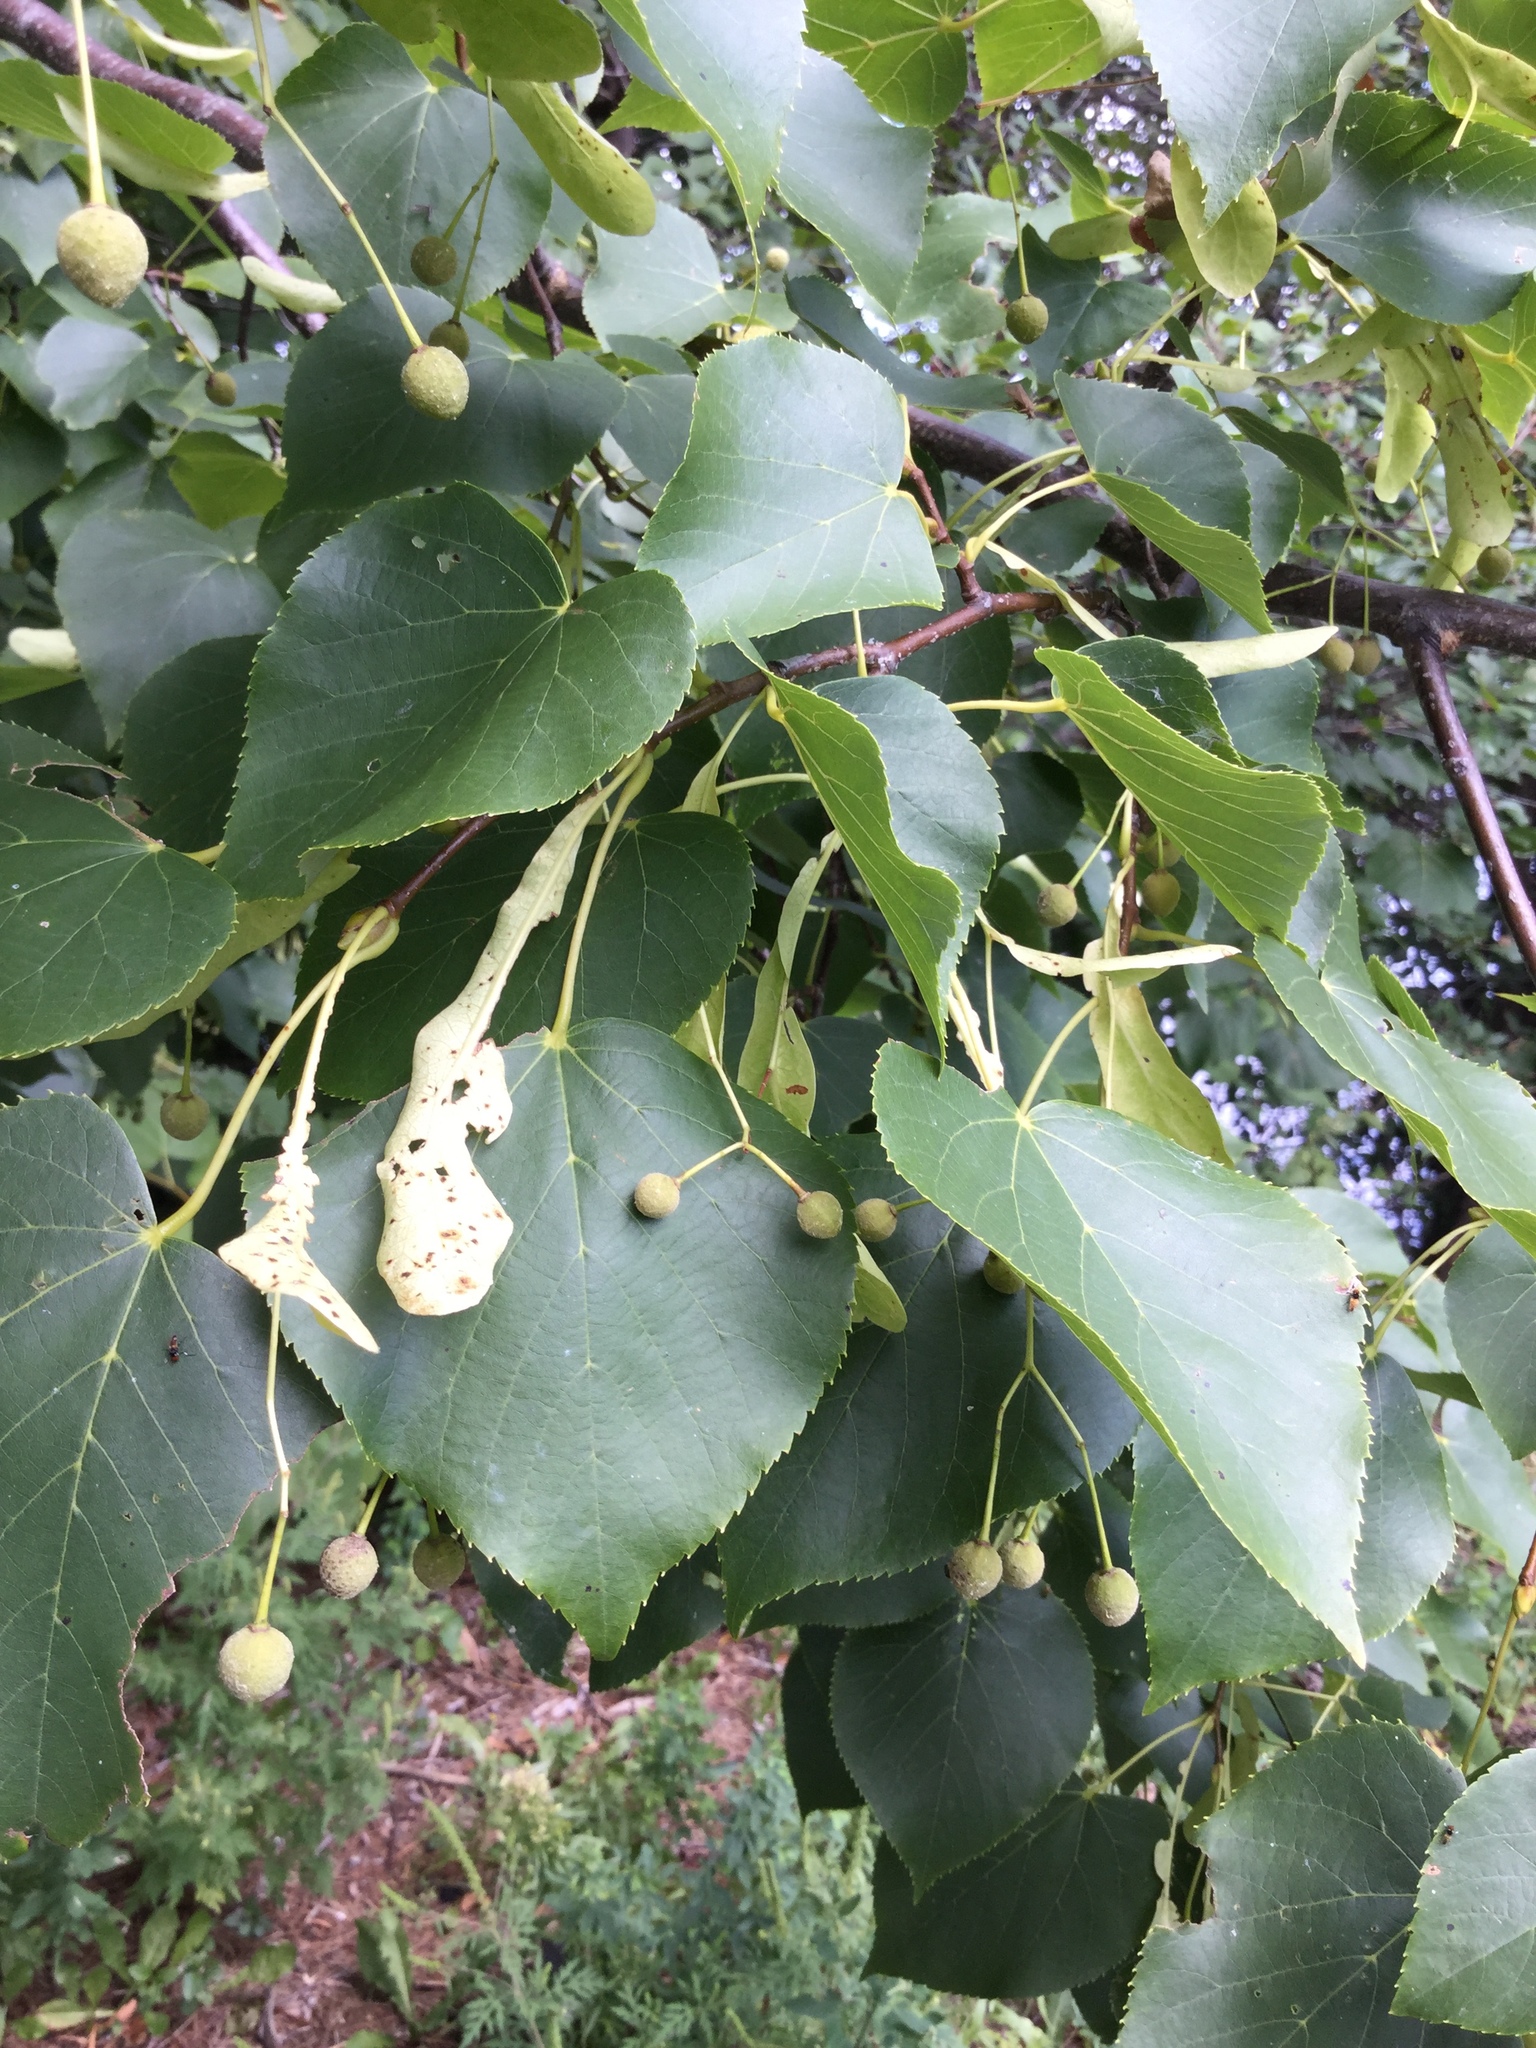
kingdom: Plantae
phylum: Tracheophyta
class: Magnoliopsida
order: Malvales
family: Malvaceae
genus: Tilia
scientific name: Tilia cordata
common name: Small-leaved lime
